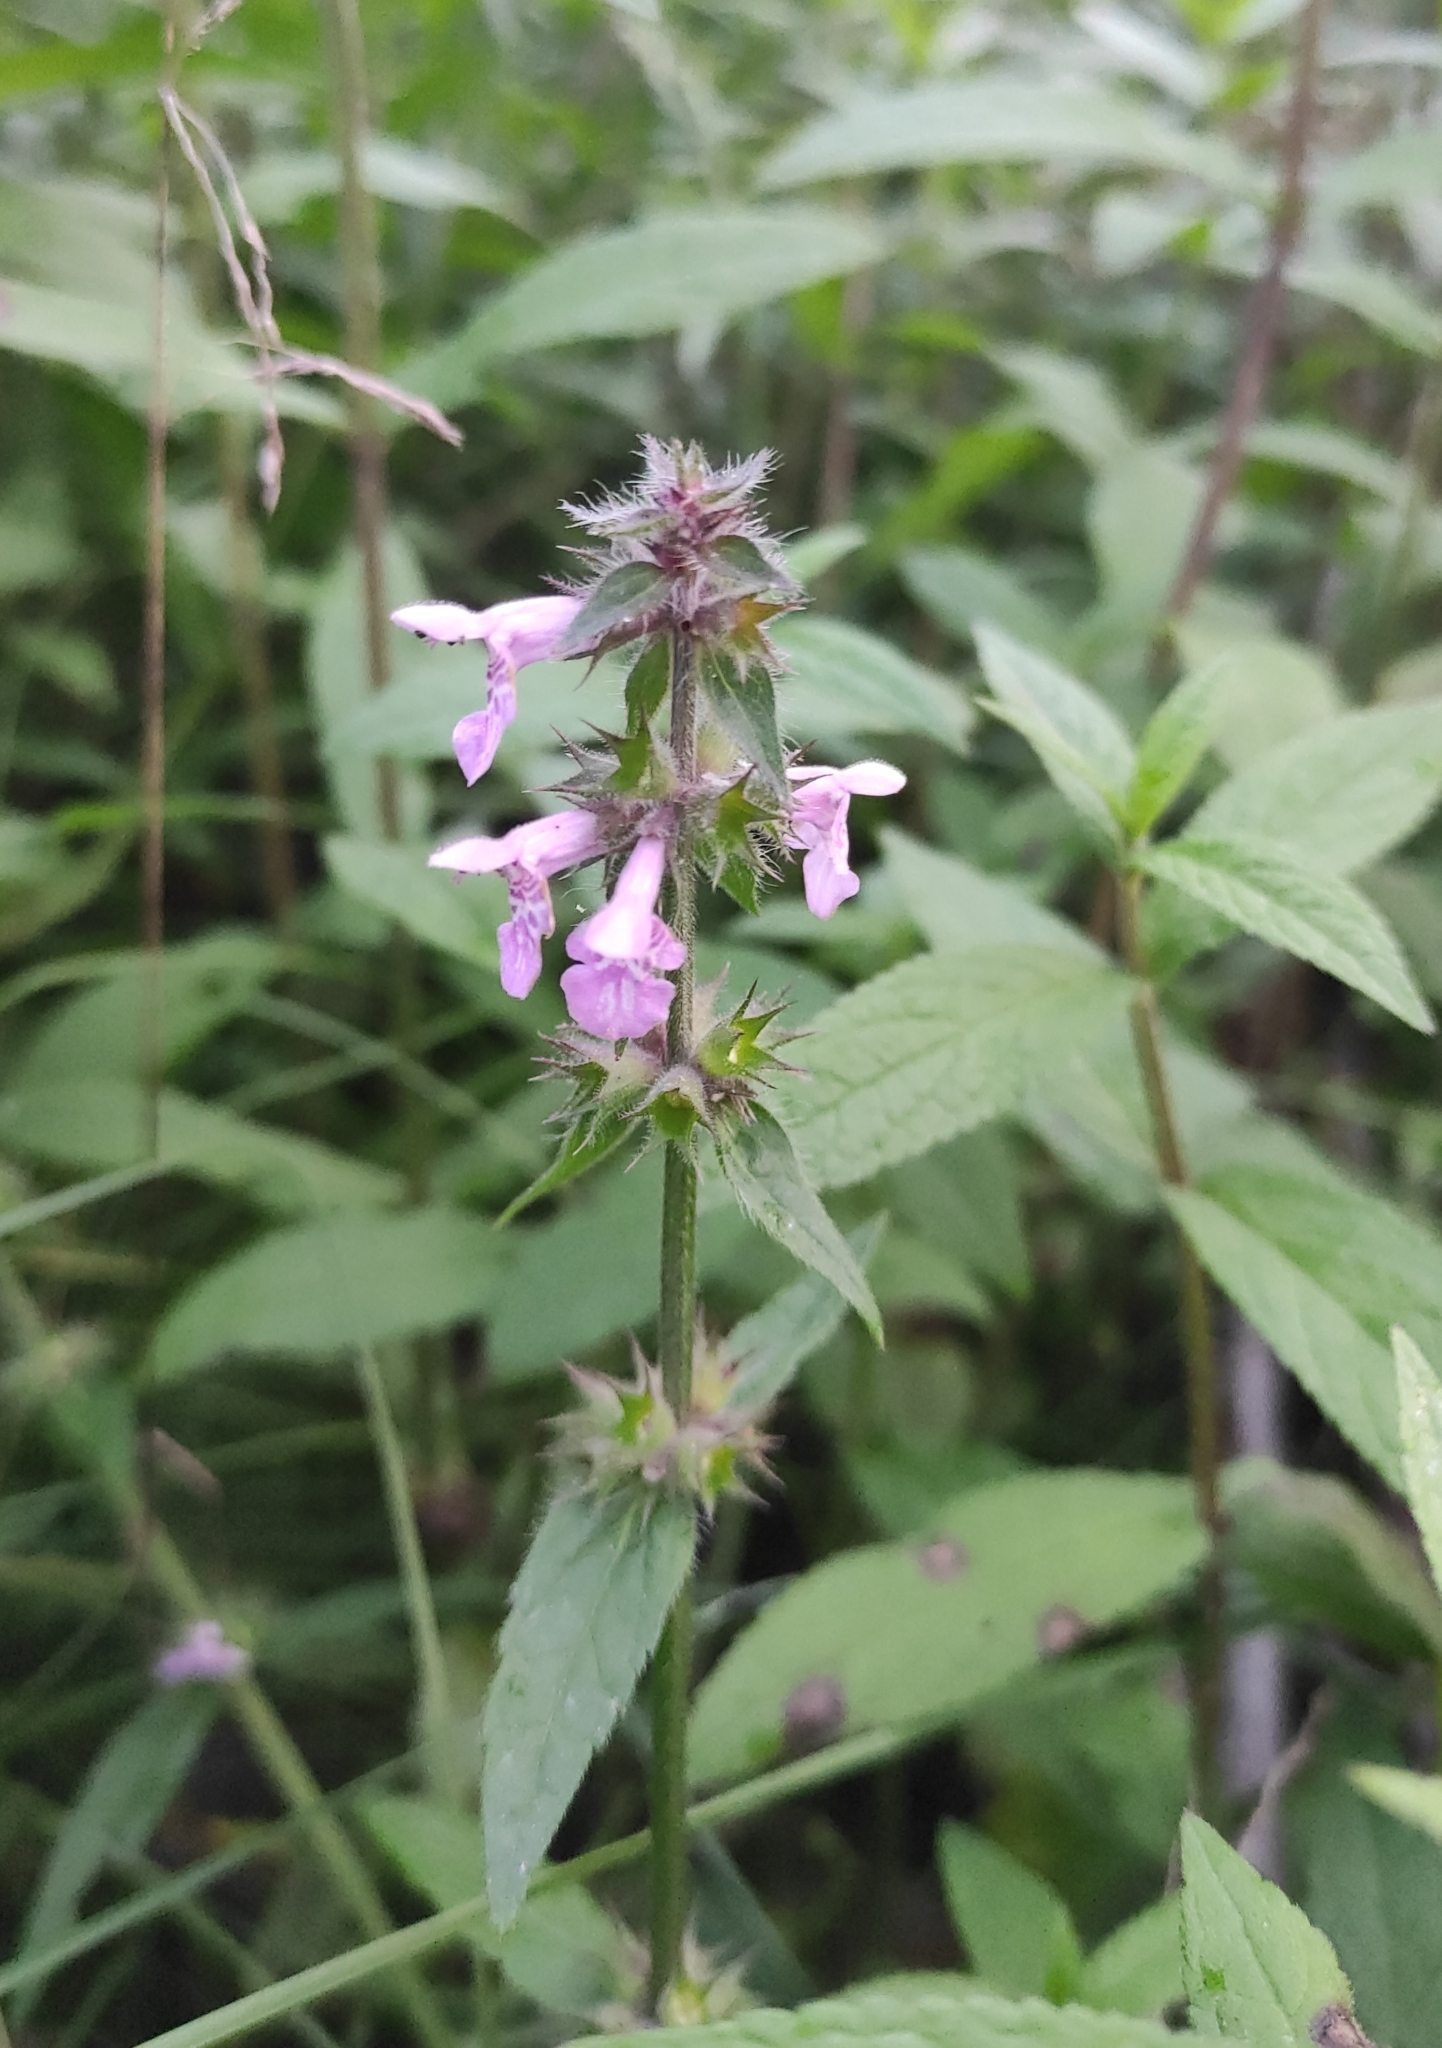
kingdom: Plantae
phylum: Tracheophyta
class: Magnoliopsida
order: Lamiales
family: Lamiaceae
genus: Stachys
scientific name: Stachys aspera
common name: Hyssopleaf hedgenettle
